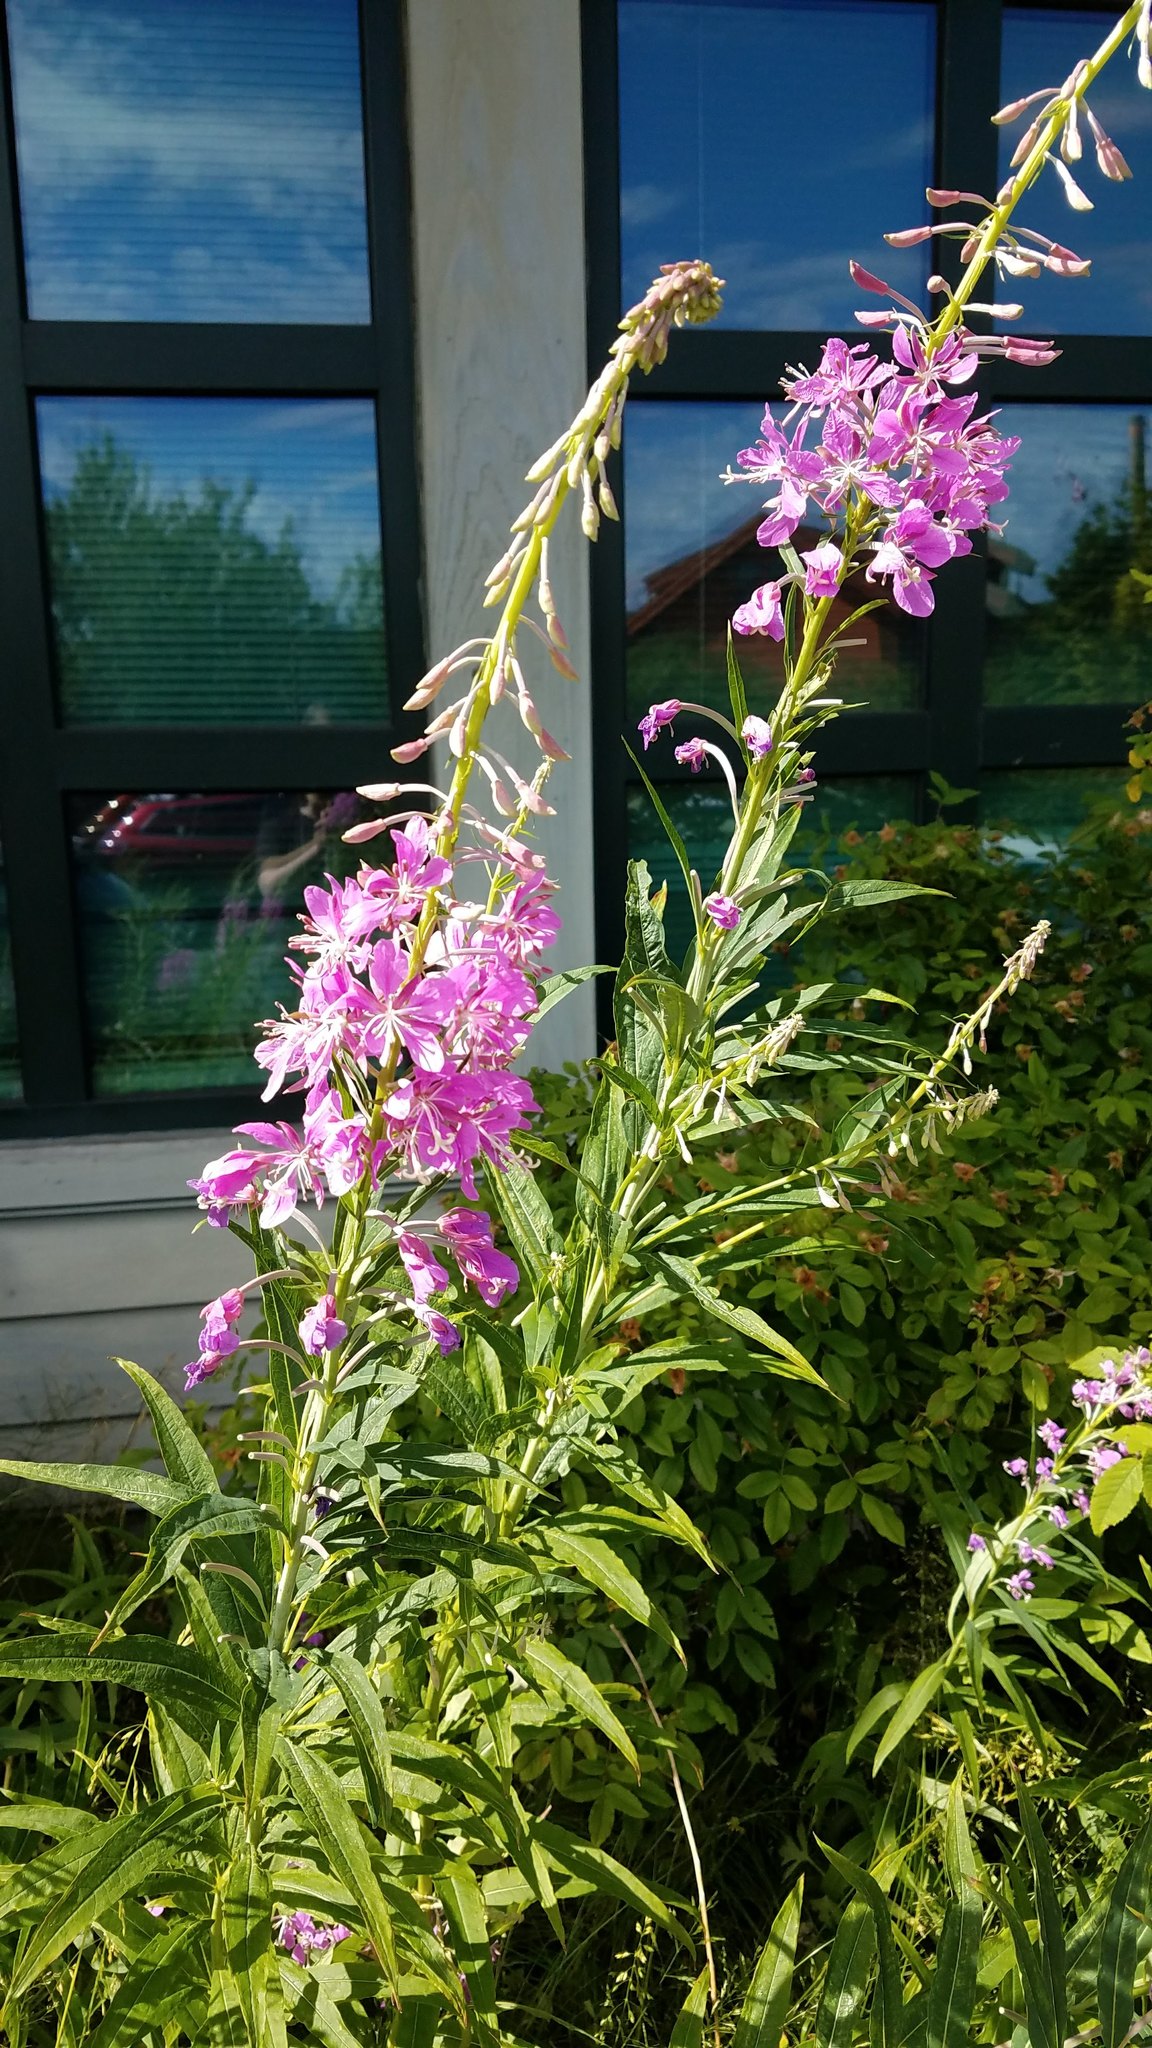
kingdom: Plantae
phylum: Tracheophyta
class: Magnoliopsida
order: Myrtales
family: Onagraceae
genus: Chamaenerion
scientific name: Chamaenerion angustifolium
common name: Fireweed
